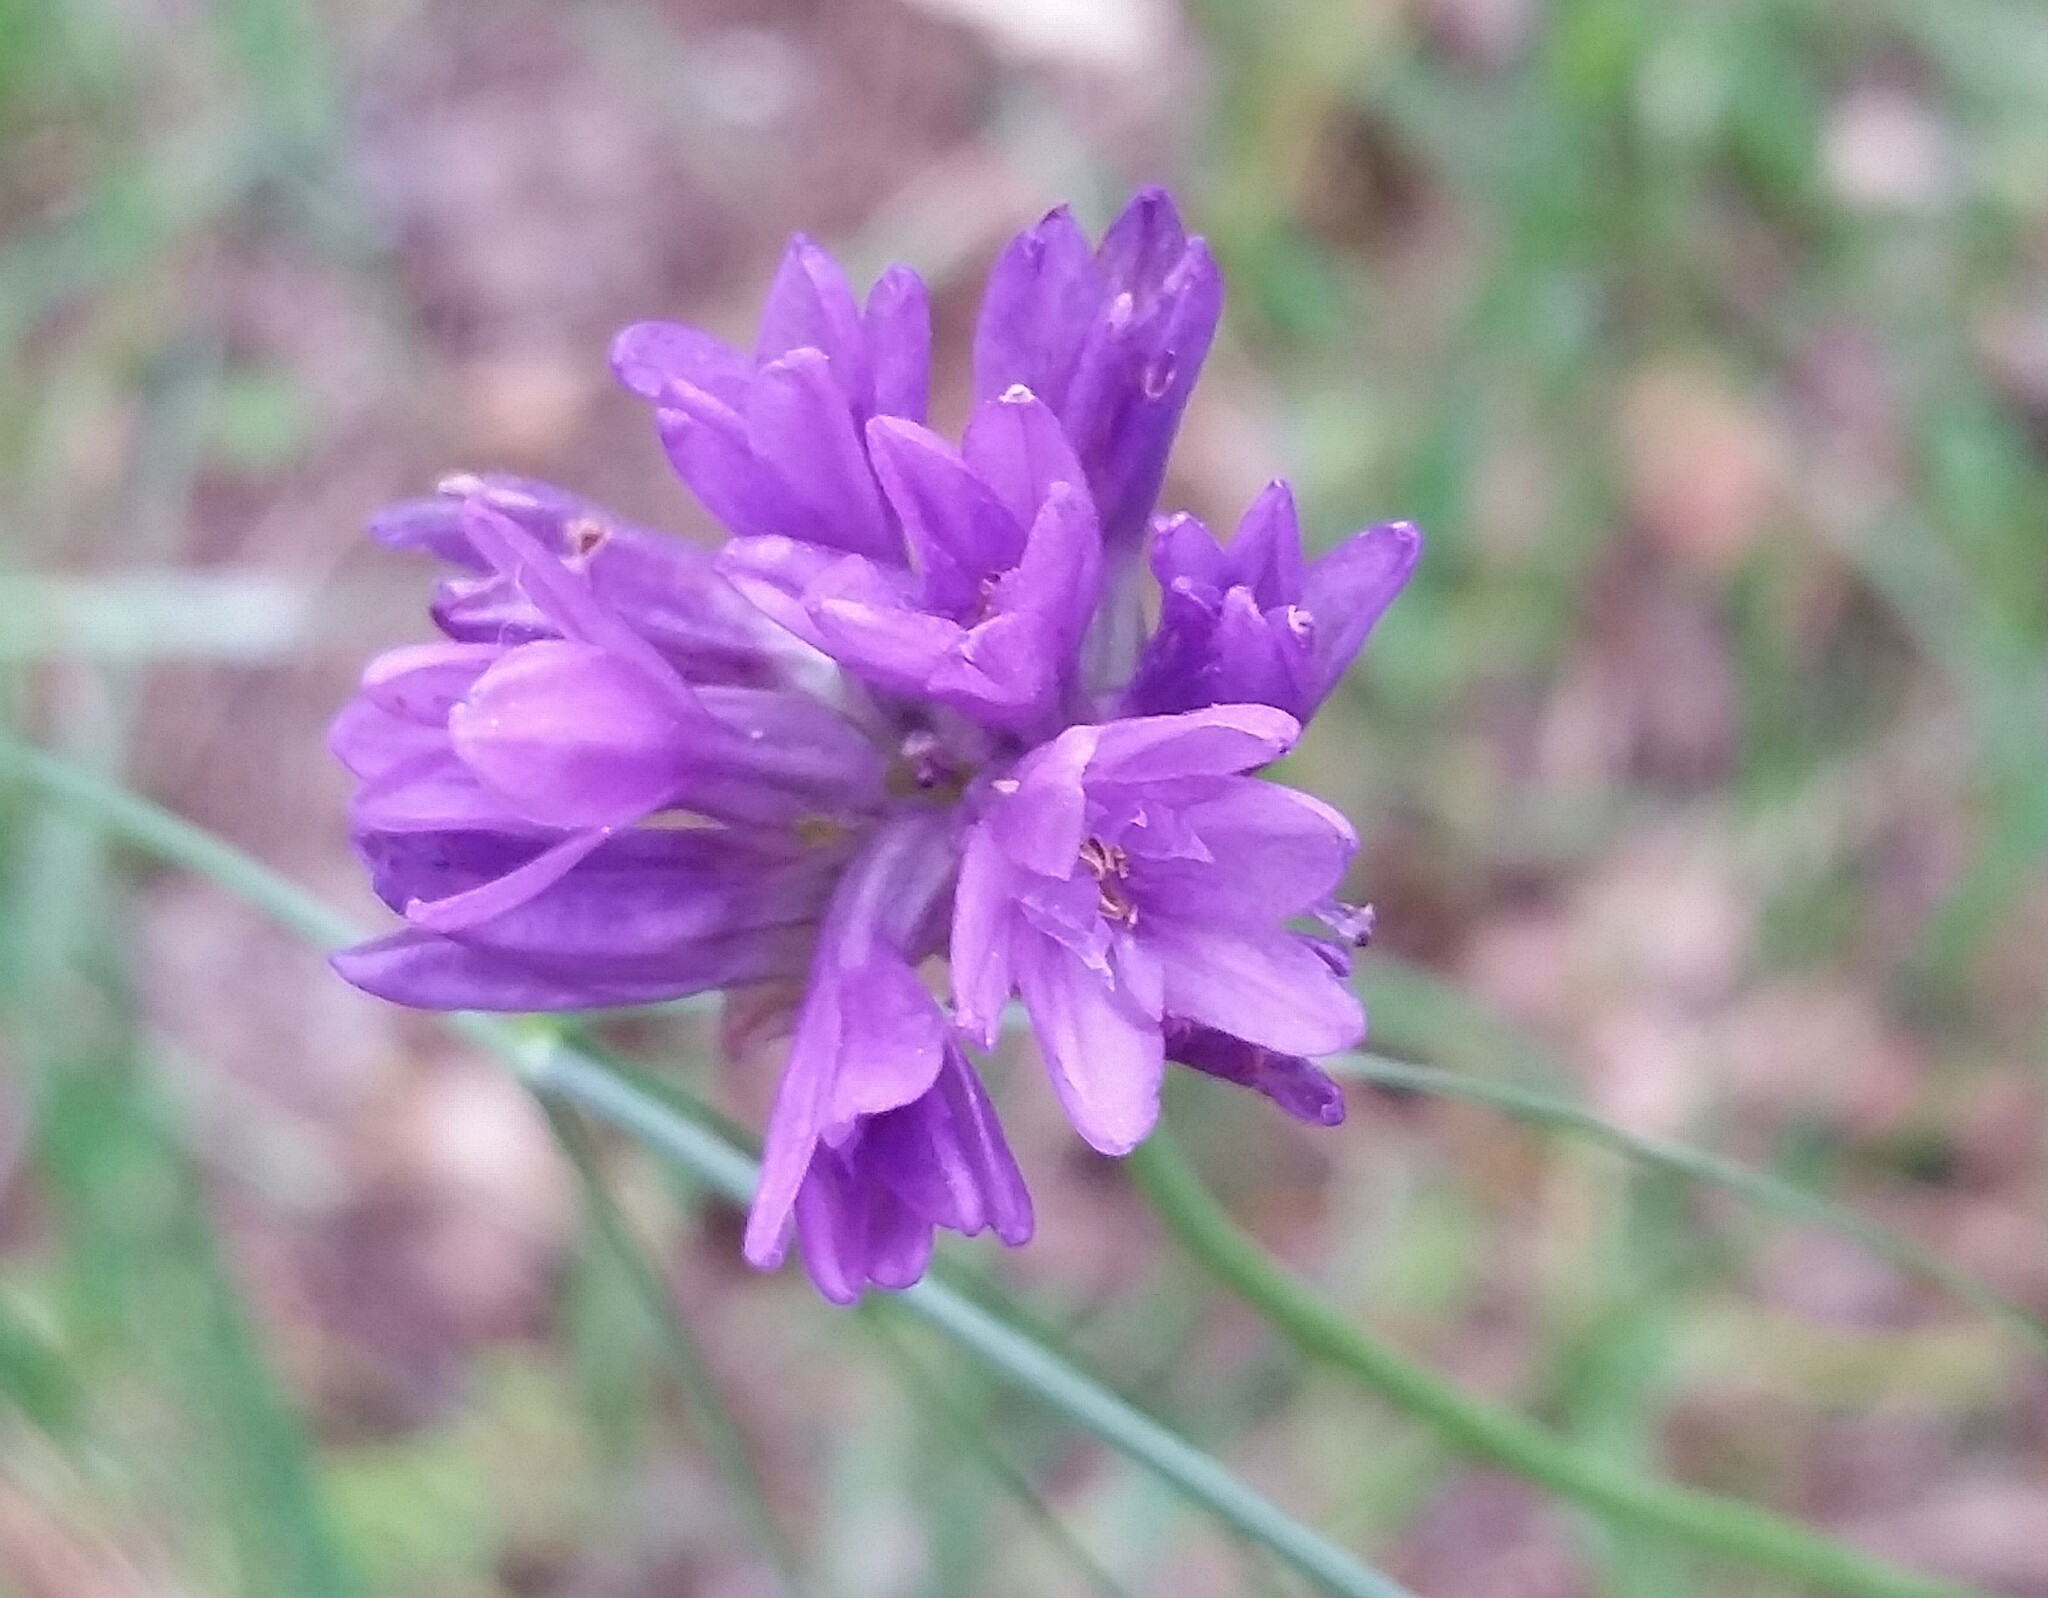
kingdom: Plantae
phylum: Tracheophyta
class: Liliopsida
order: Asparagales
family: Asparagaceae
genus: Dichelostemma
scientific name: Dichelostemma congestum
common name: Fork-tooth ookow
